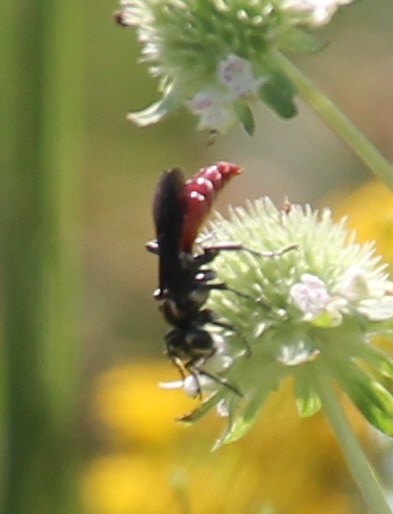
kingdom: Animalia
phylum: Arthropoda
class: Insecta
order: Hymenoptera
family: Crabronidae
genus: Larra
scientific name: Larra bicolor
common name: Wasp
